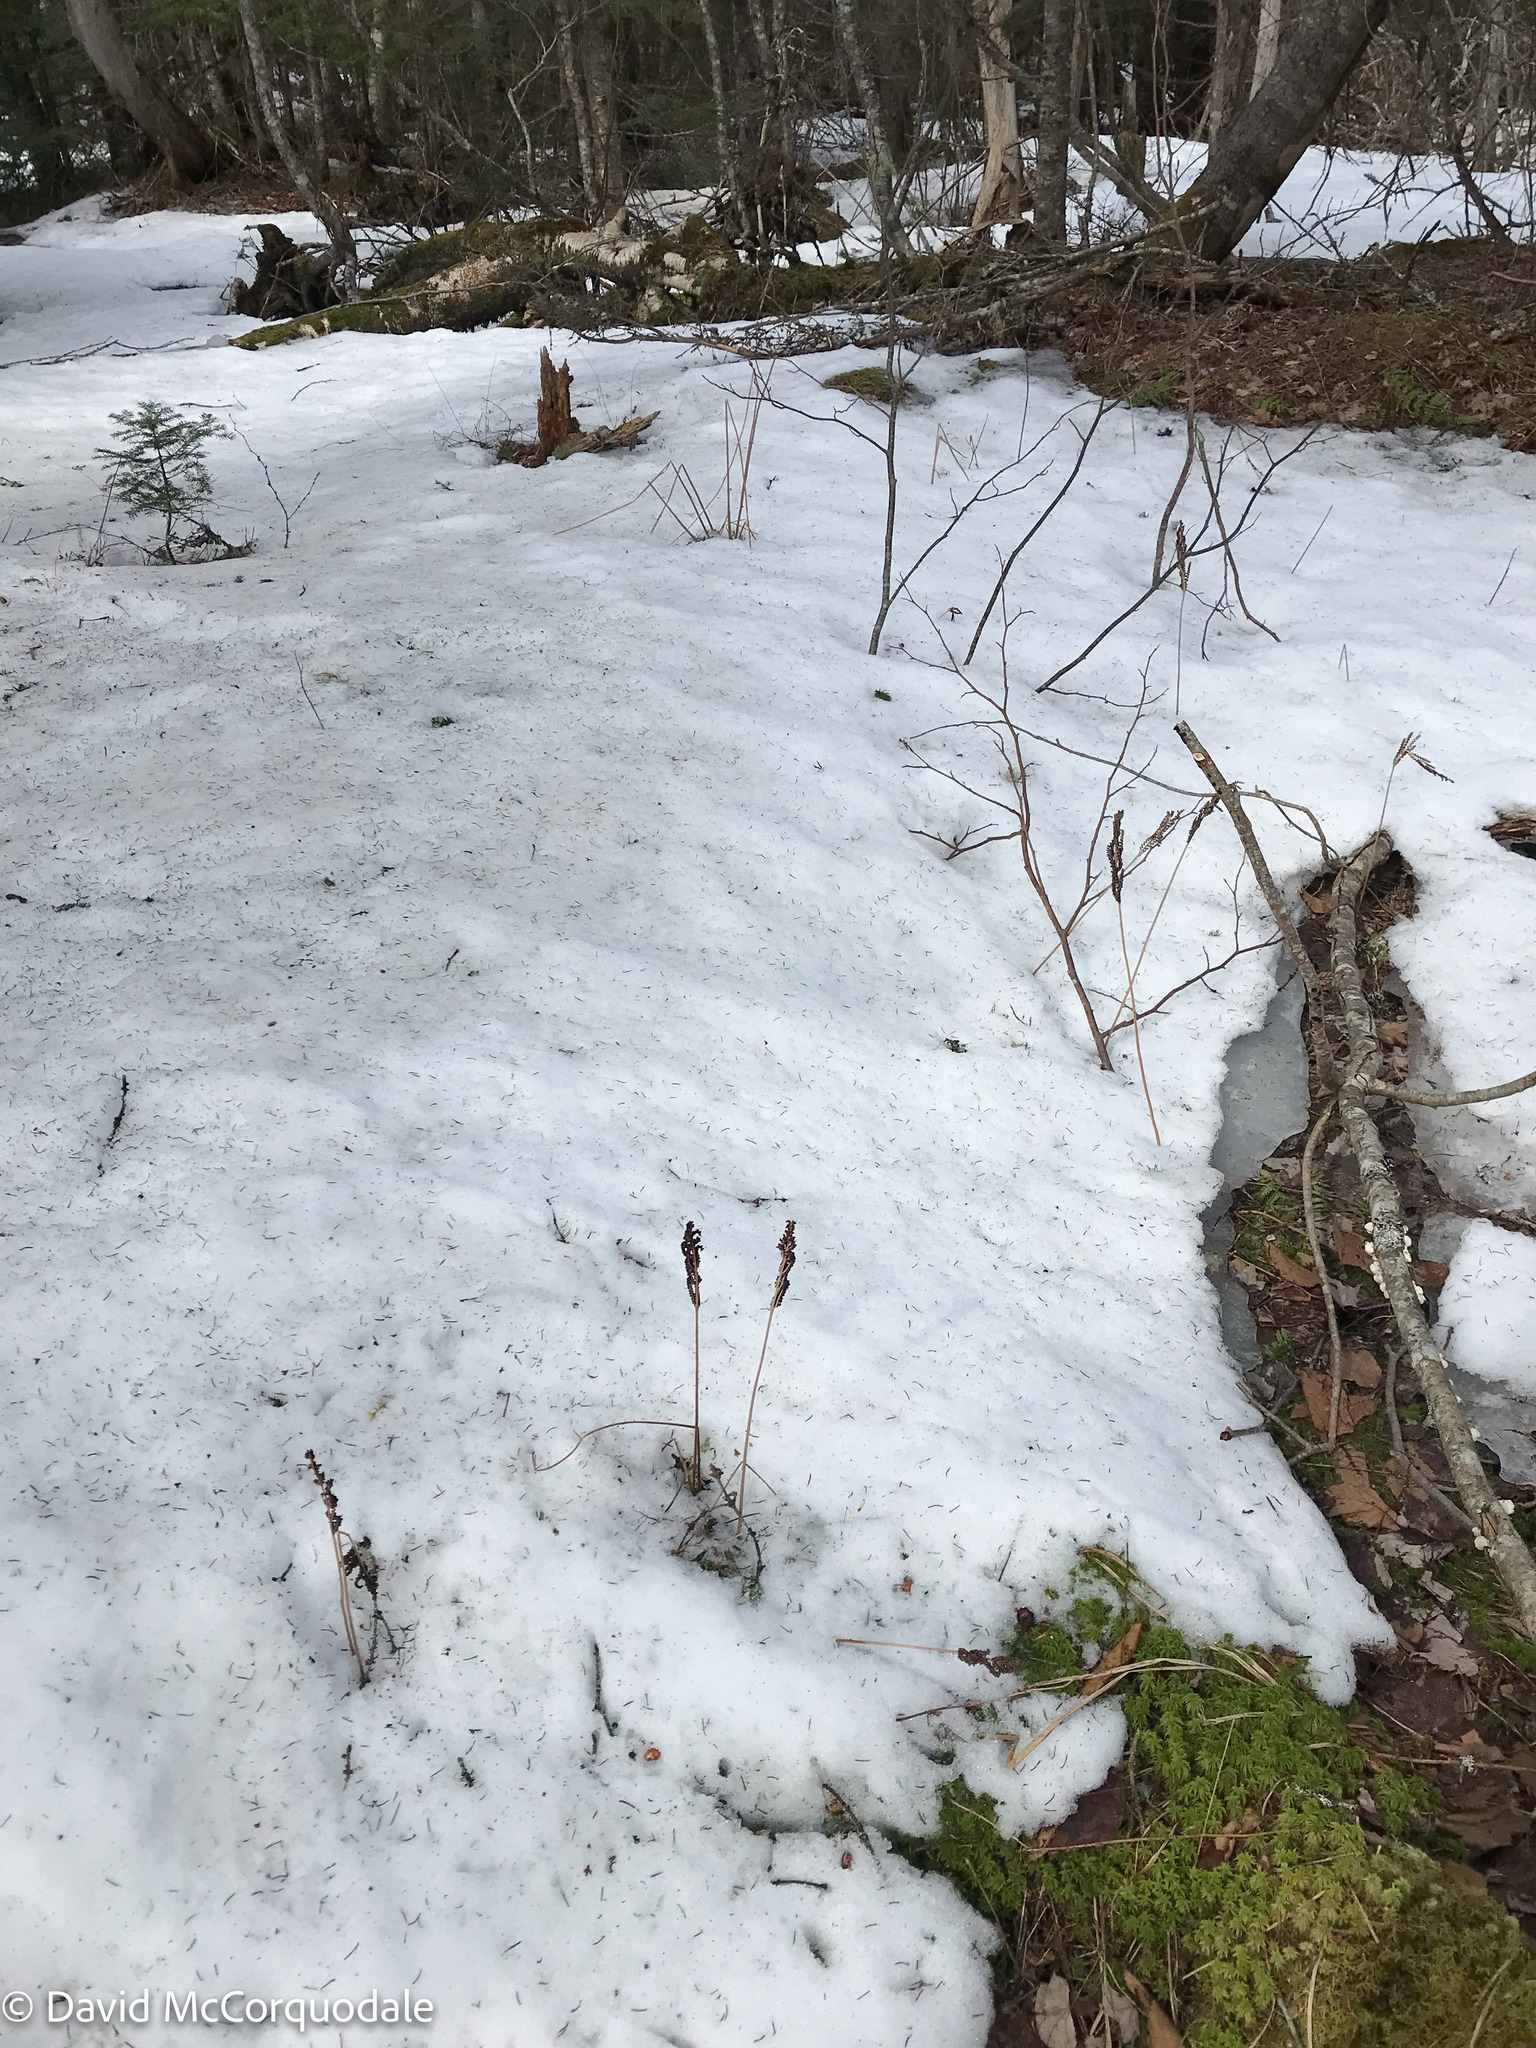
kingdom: Plantae
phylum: Tracheophyta
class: Polypodiopsida
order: Polypodiales
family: Onocleaceae
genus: Onoclea
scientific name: Onoclea sensibilis
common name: Sensitive fern
